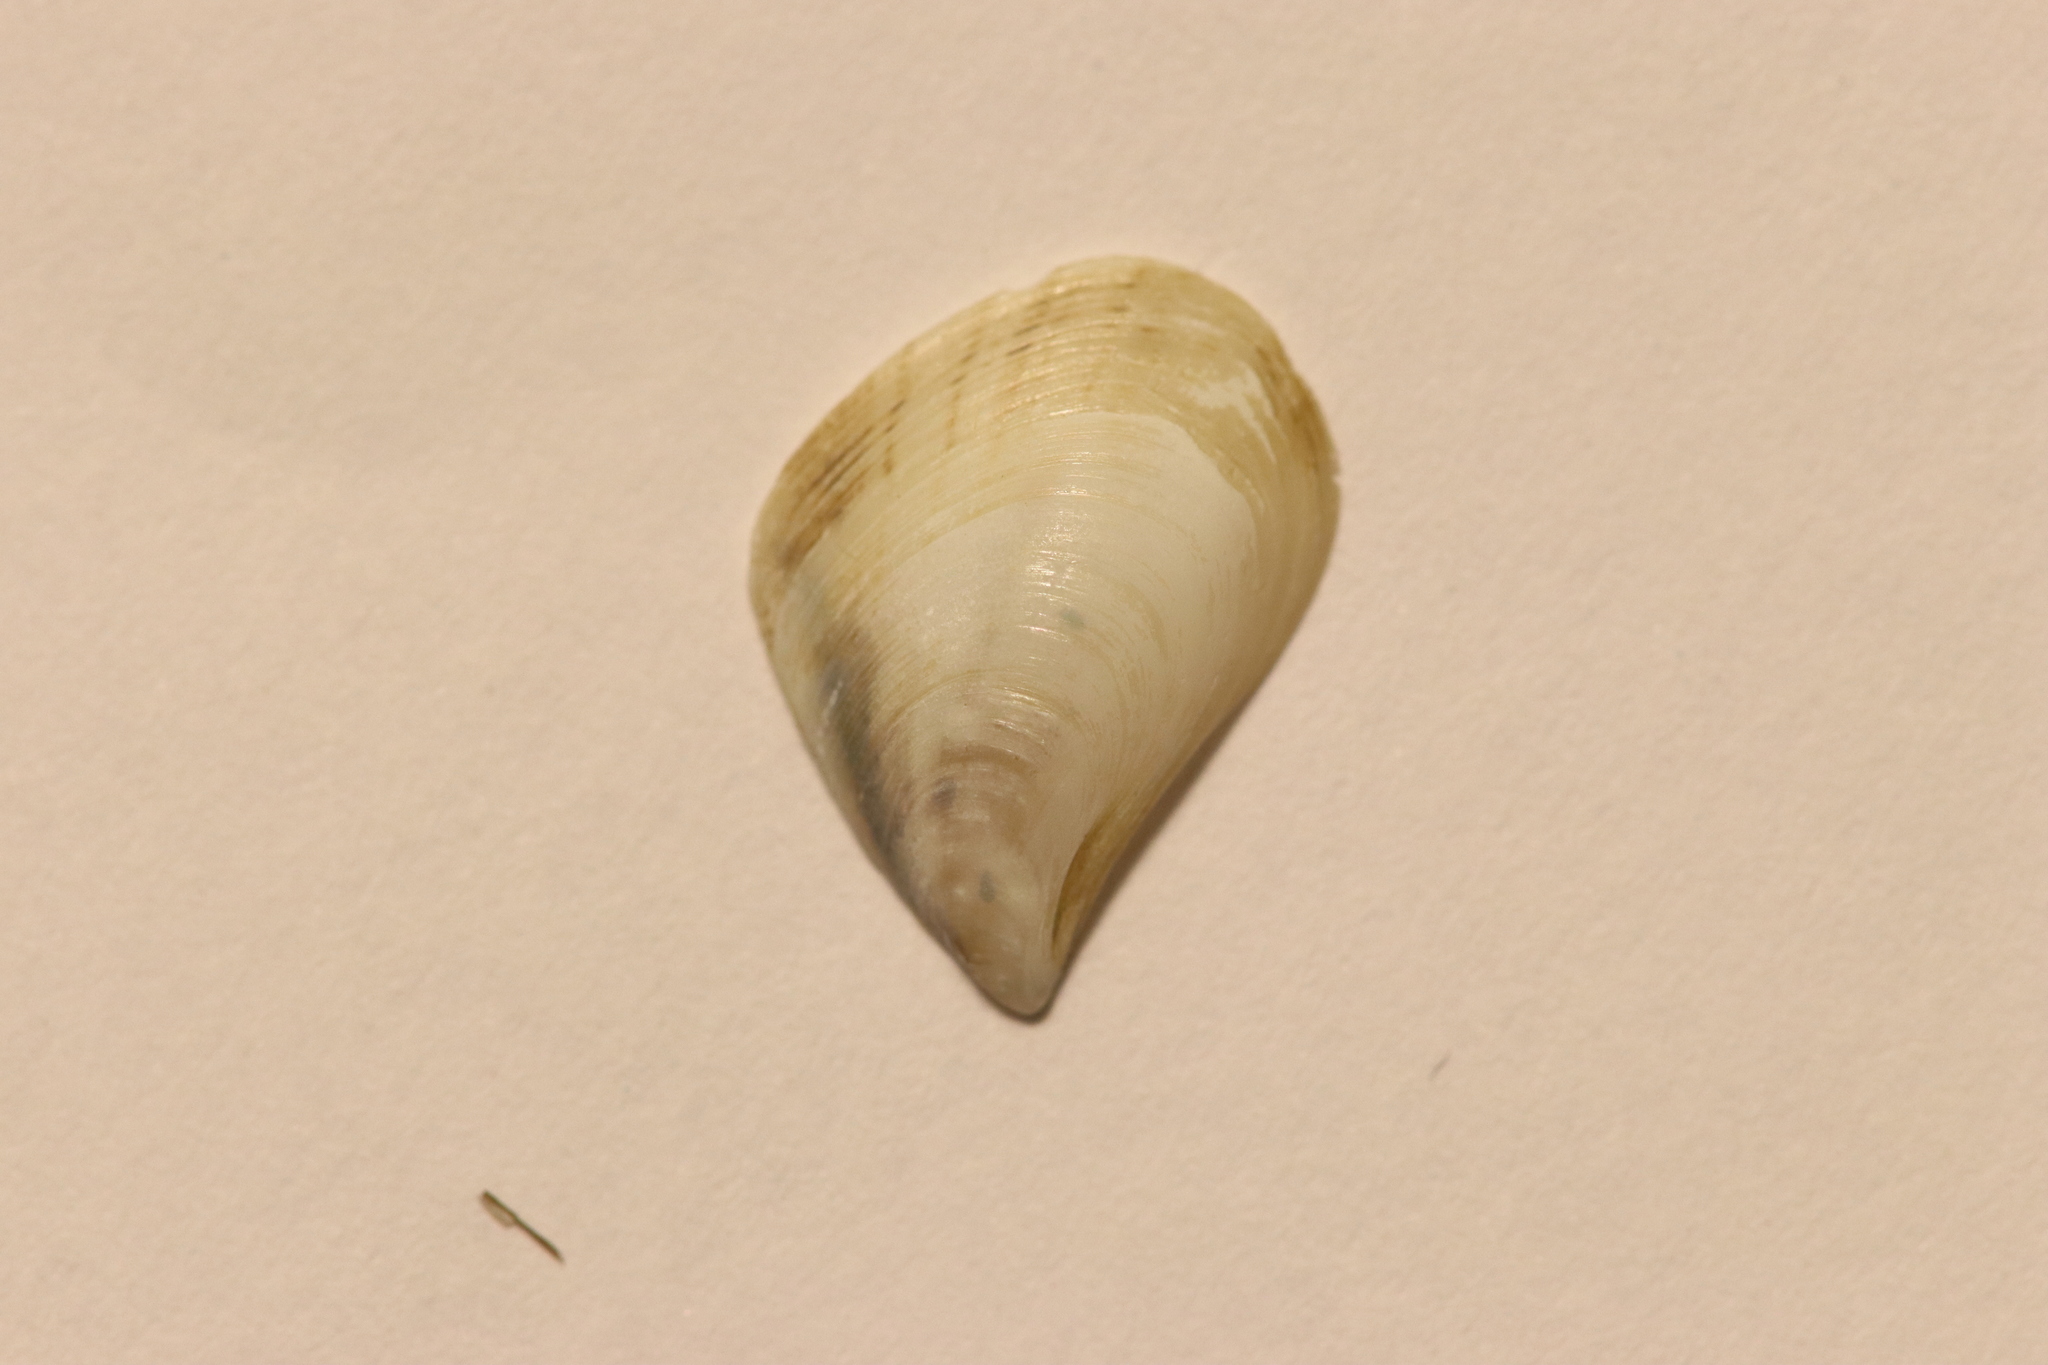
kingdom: Animalia
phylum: Mollusca
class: Bivalvia
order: Myida
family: Dreissenidae
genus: Dreissena
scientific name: Dreissena bugensis
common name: Quagga mussel
